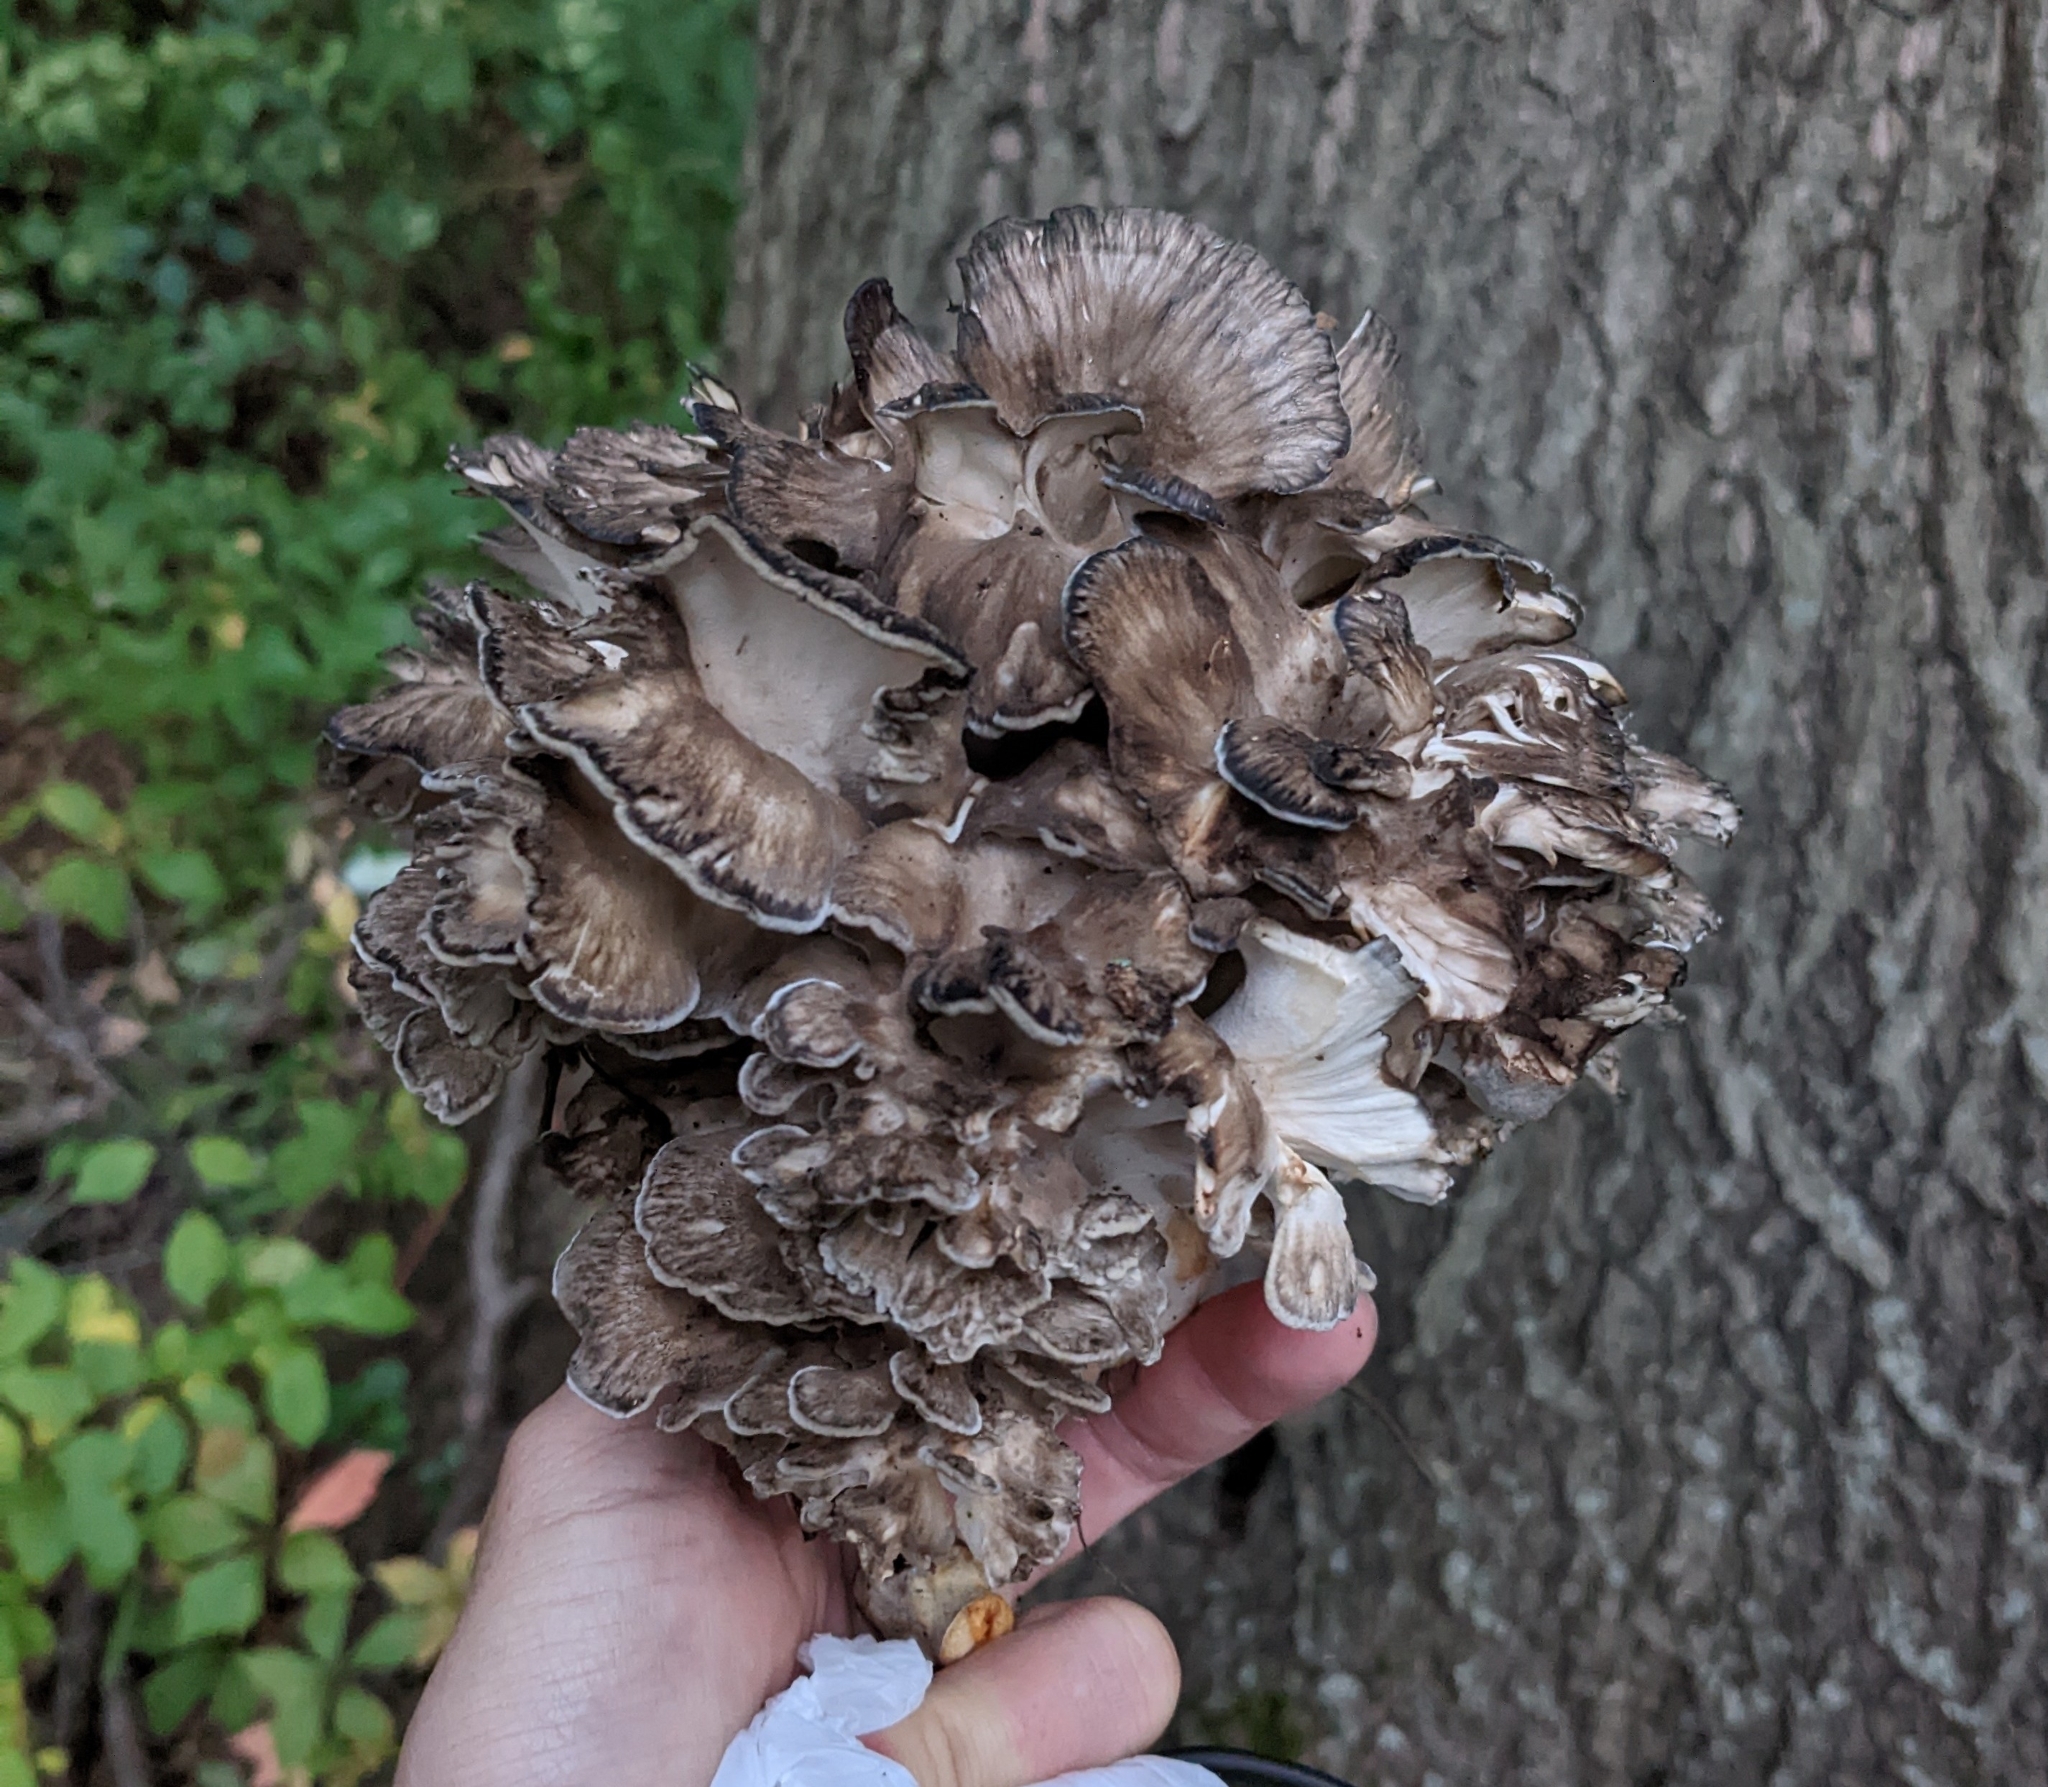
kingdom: Fungi
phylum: Basidiomycota
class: Agaricomycetes
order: Polyporales
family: Grifolaceae
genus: Grifola
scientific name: Grifola frondosa
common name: Hen of the woods
